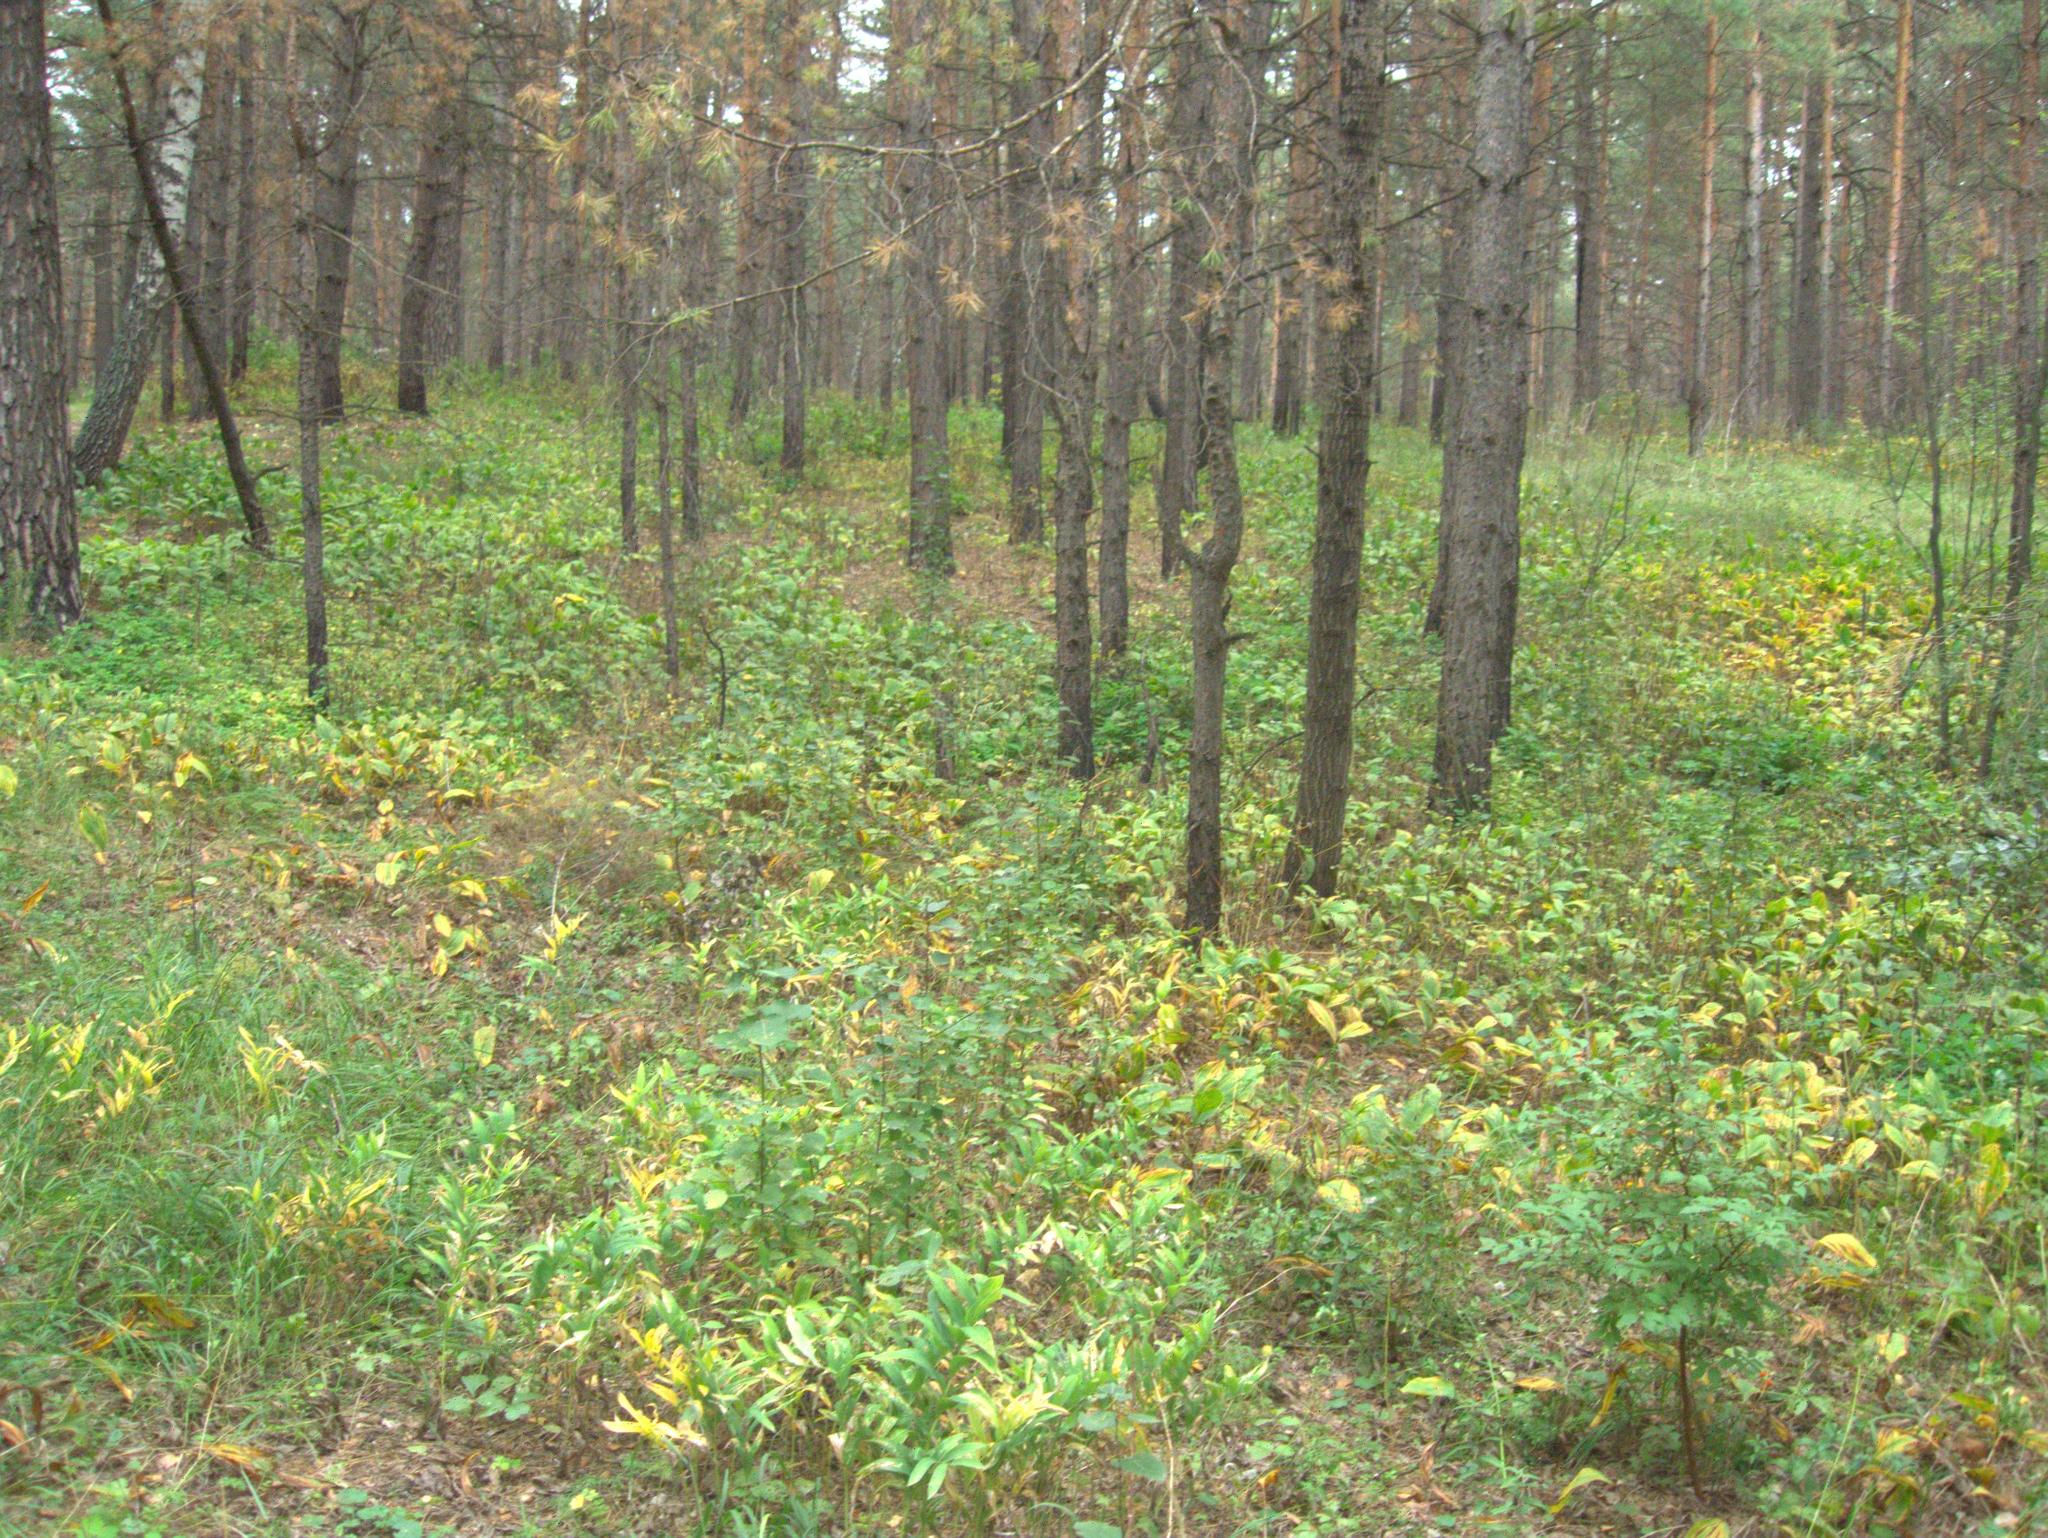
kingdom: Plantae
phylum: Tracheophyta
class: Magnoliopsida
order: Malpighiales
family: Salicaceae
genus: Populus
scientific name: Populus tremula
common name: European aspen
